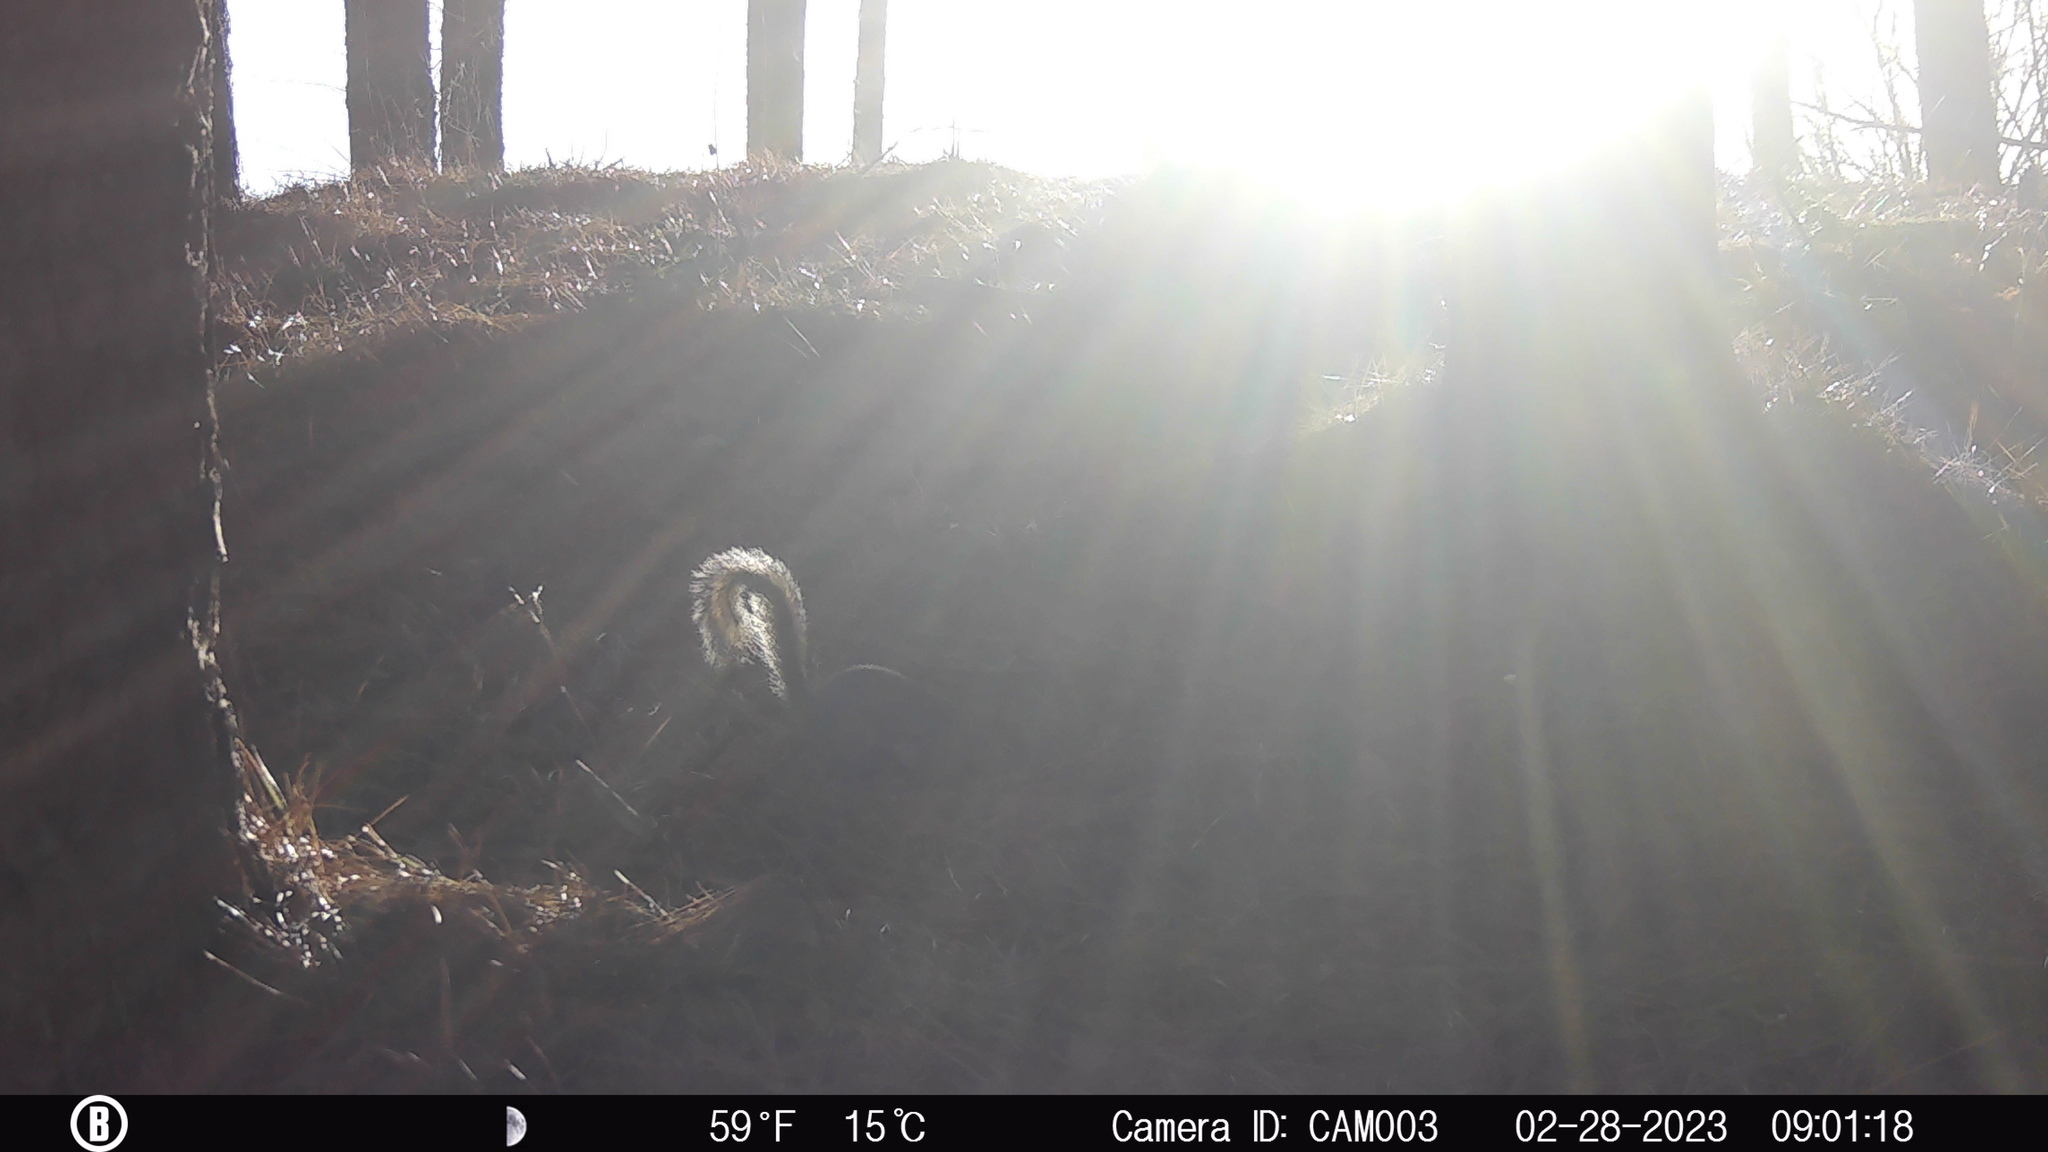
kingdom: Animalia
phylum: Chordata
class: Mammalia
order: Rodentia
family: Sciuridae
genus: Sciurus
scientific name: Sciurus carolinensis
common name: Eastern gray squirrel
